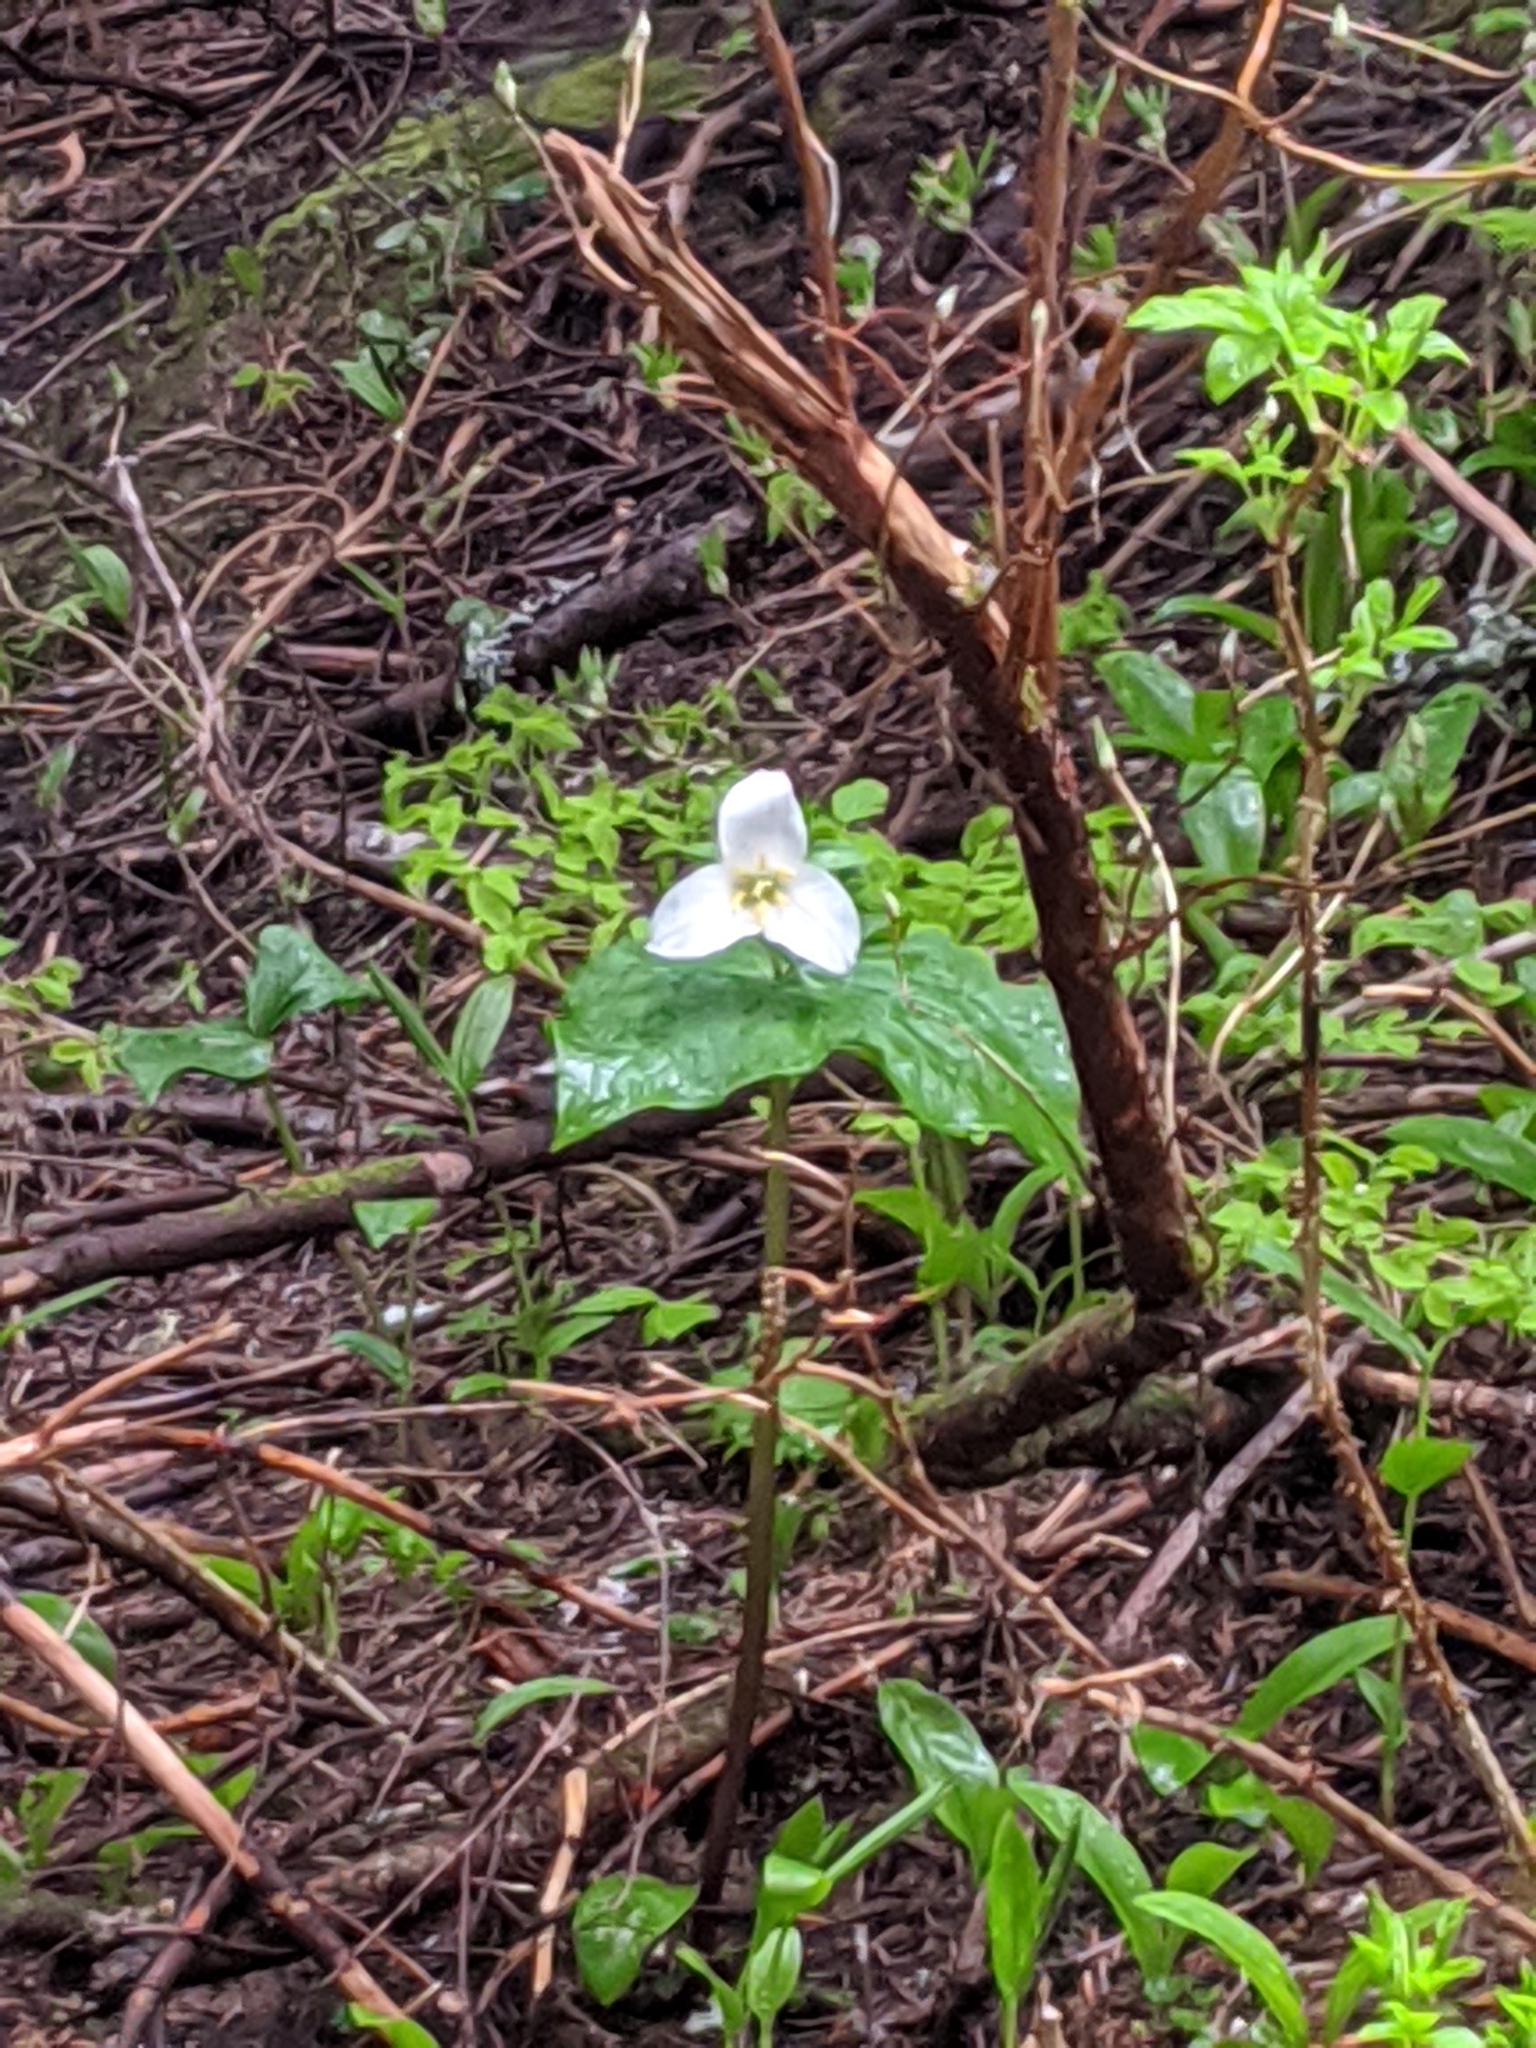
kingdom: Plantae
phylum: Tracheophyta
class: Liliopsida
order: Liliales
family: Melanthiaceae
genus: Trillium
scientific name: Trillium ovatum
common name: Pacific trillium
